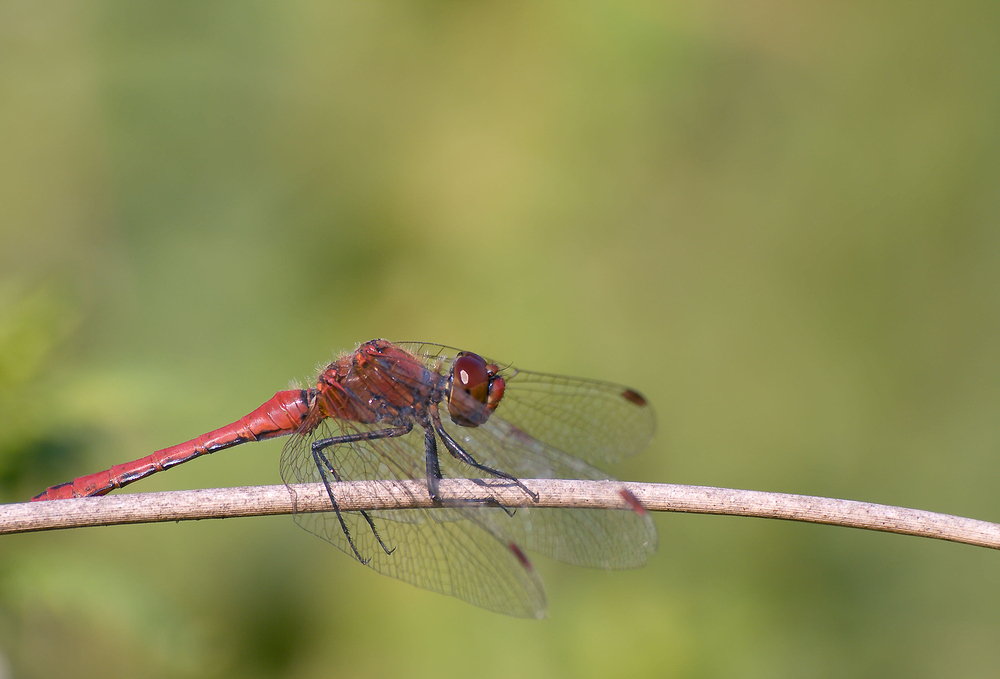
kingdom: Animalia
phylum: Arthropoda
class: Insecta
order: Odonata
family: Libellulidae
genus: Sympetrum
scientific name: Sympetrum sanguineum
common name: Ruddy darter
